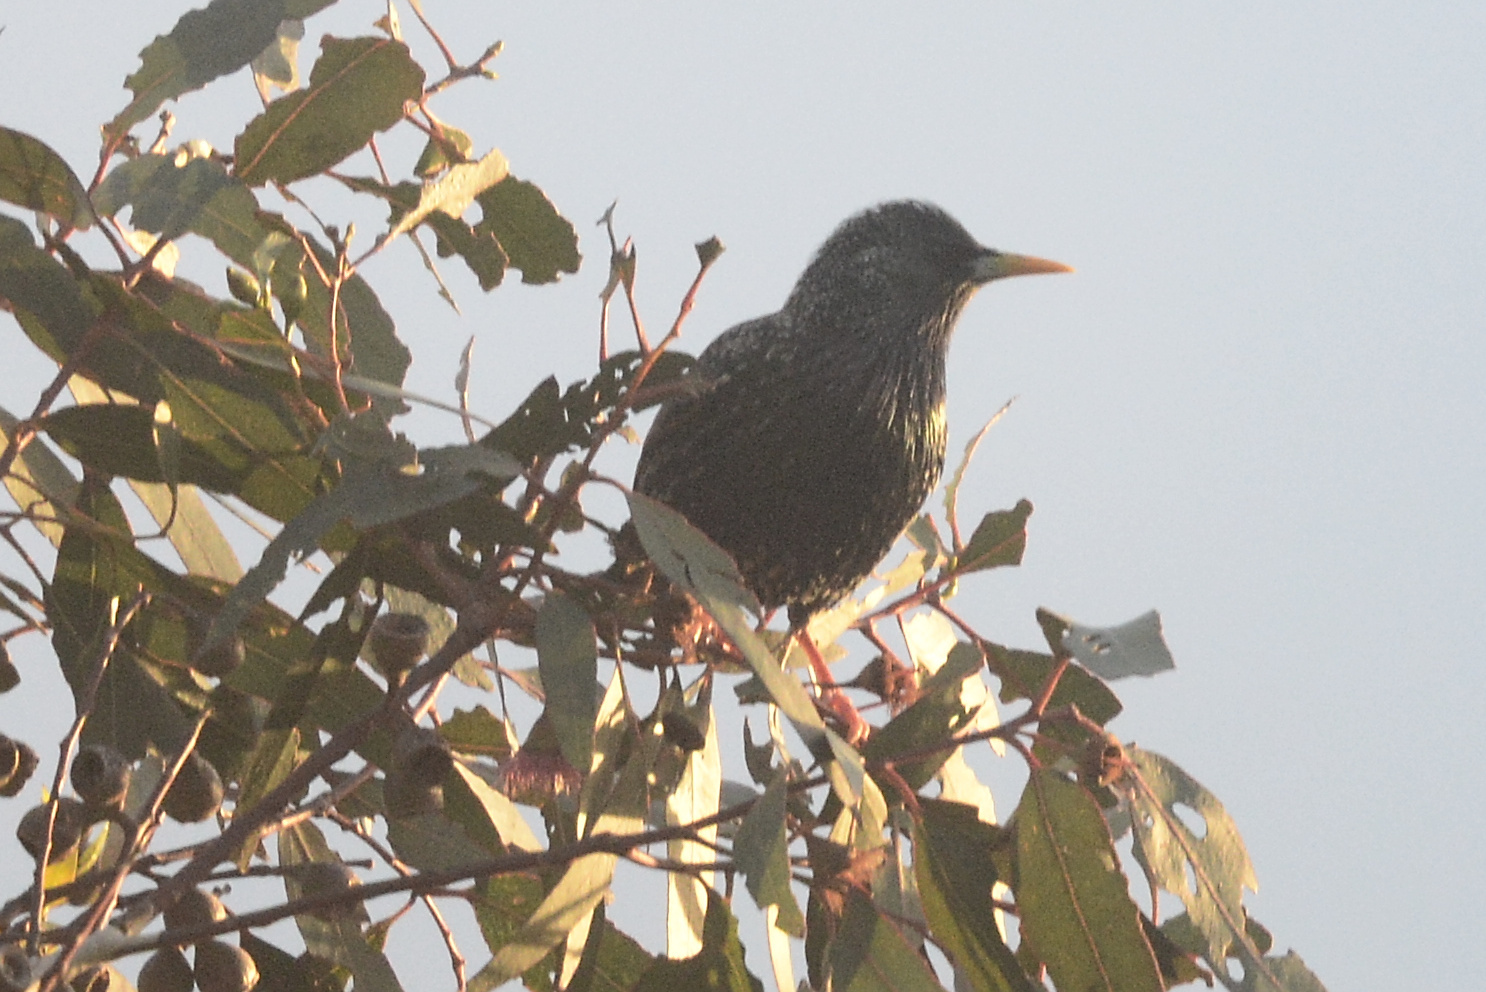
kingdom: Animalia
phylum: Chordata
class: Aves
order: Passeriformes
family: Sturnidae
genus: Sturnus
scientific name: Sturnus vulgaris
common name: Common starling
